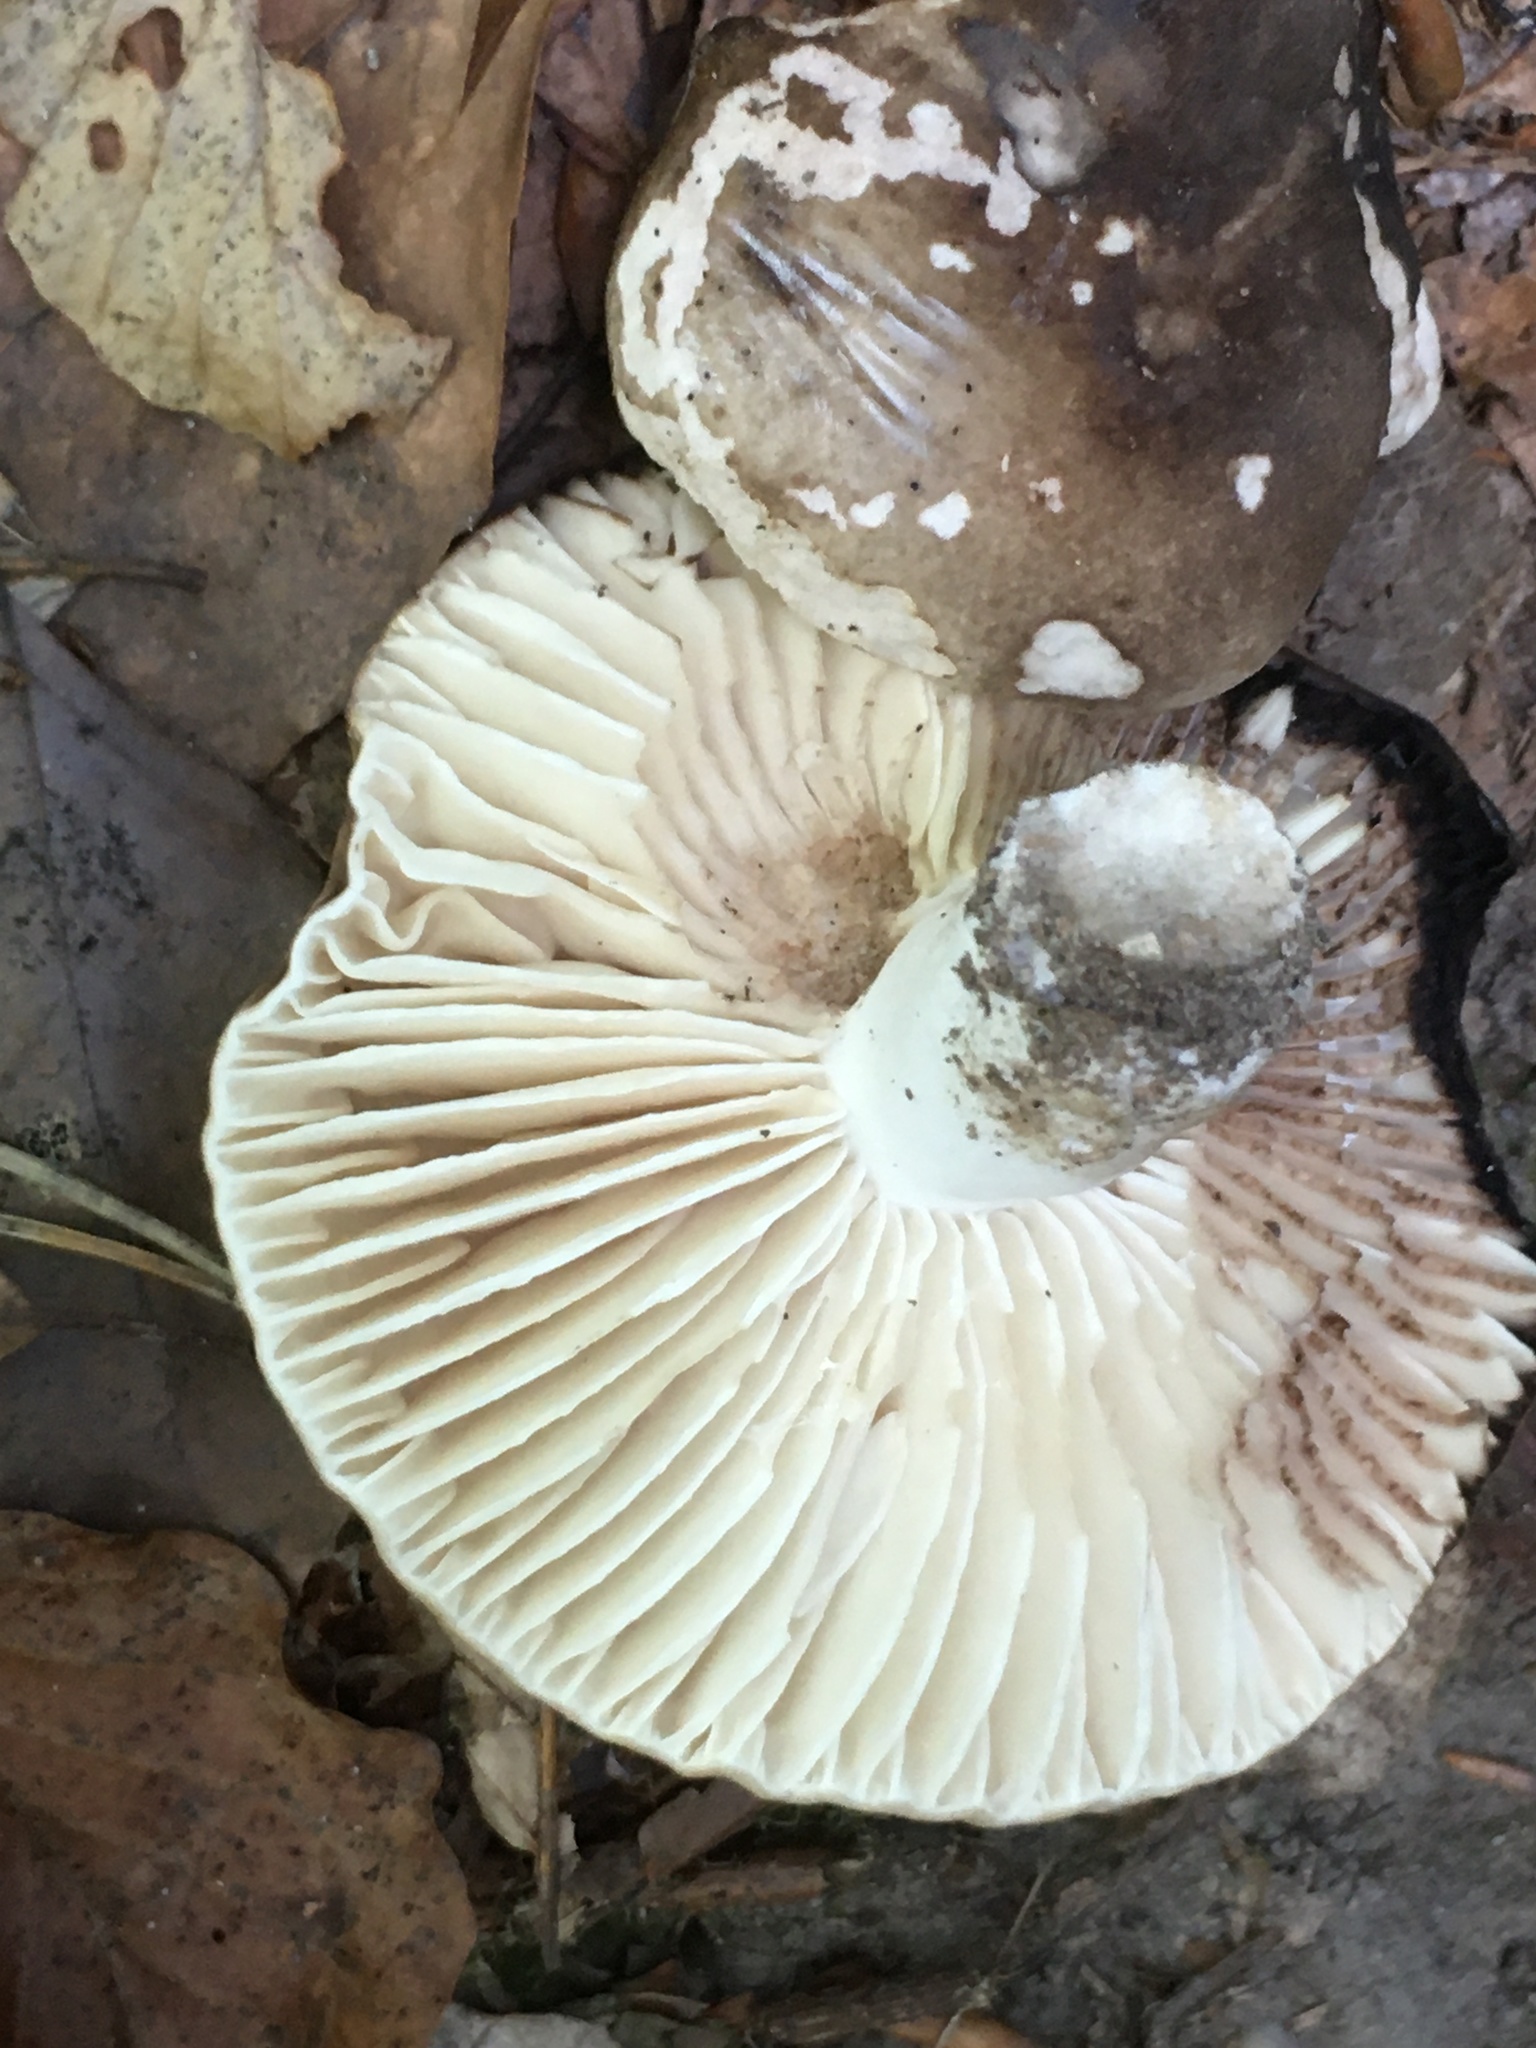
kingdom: Fungi
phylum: Basidiomycota
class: Agaricomycetes
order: Russulales
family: Russulaceae
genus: Russula
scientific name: Russula adusta
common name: Winecork brittlegill
